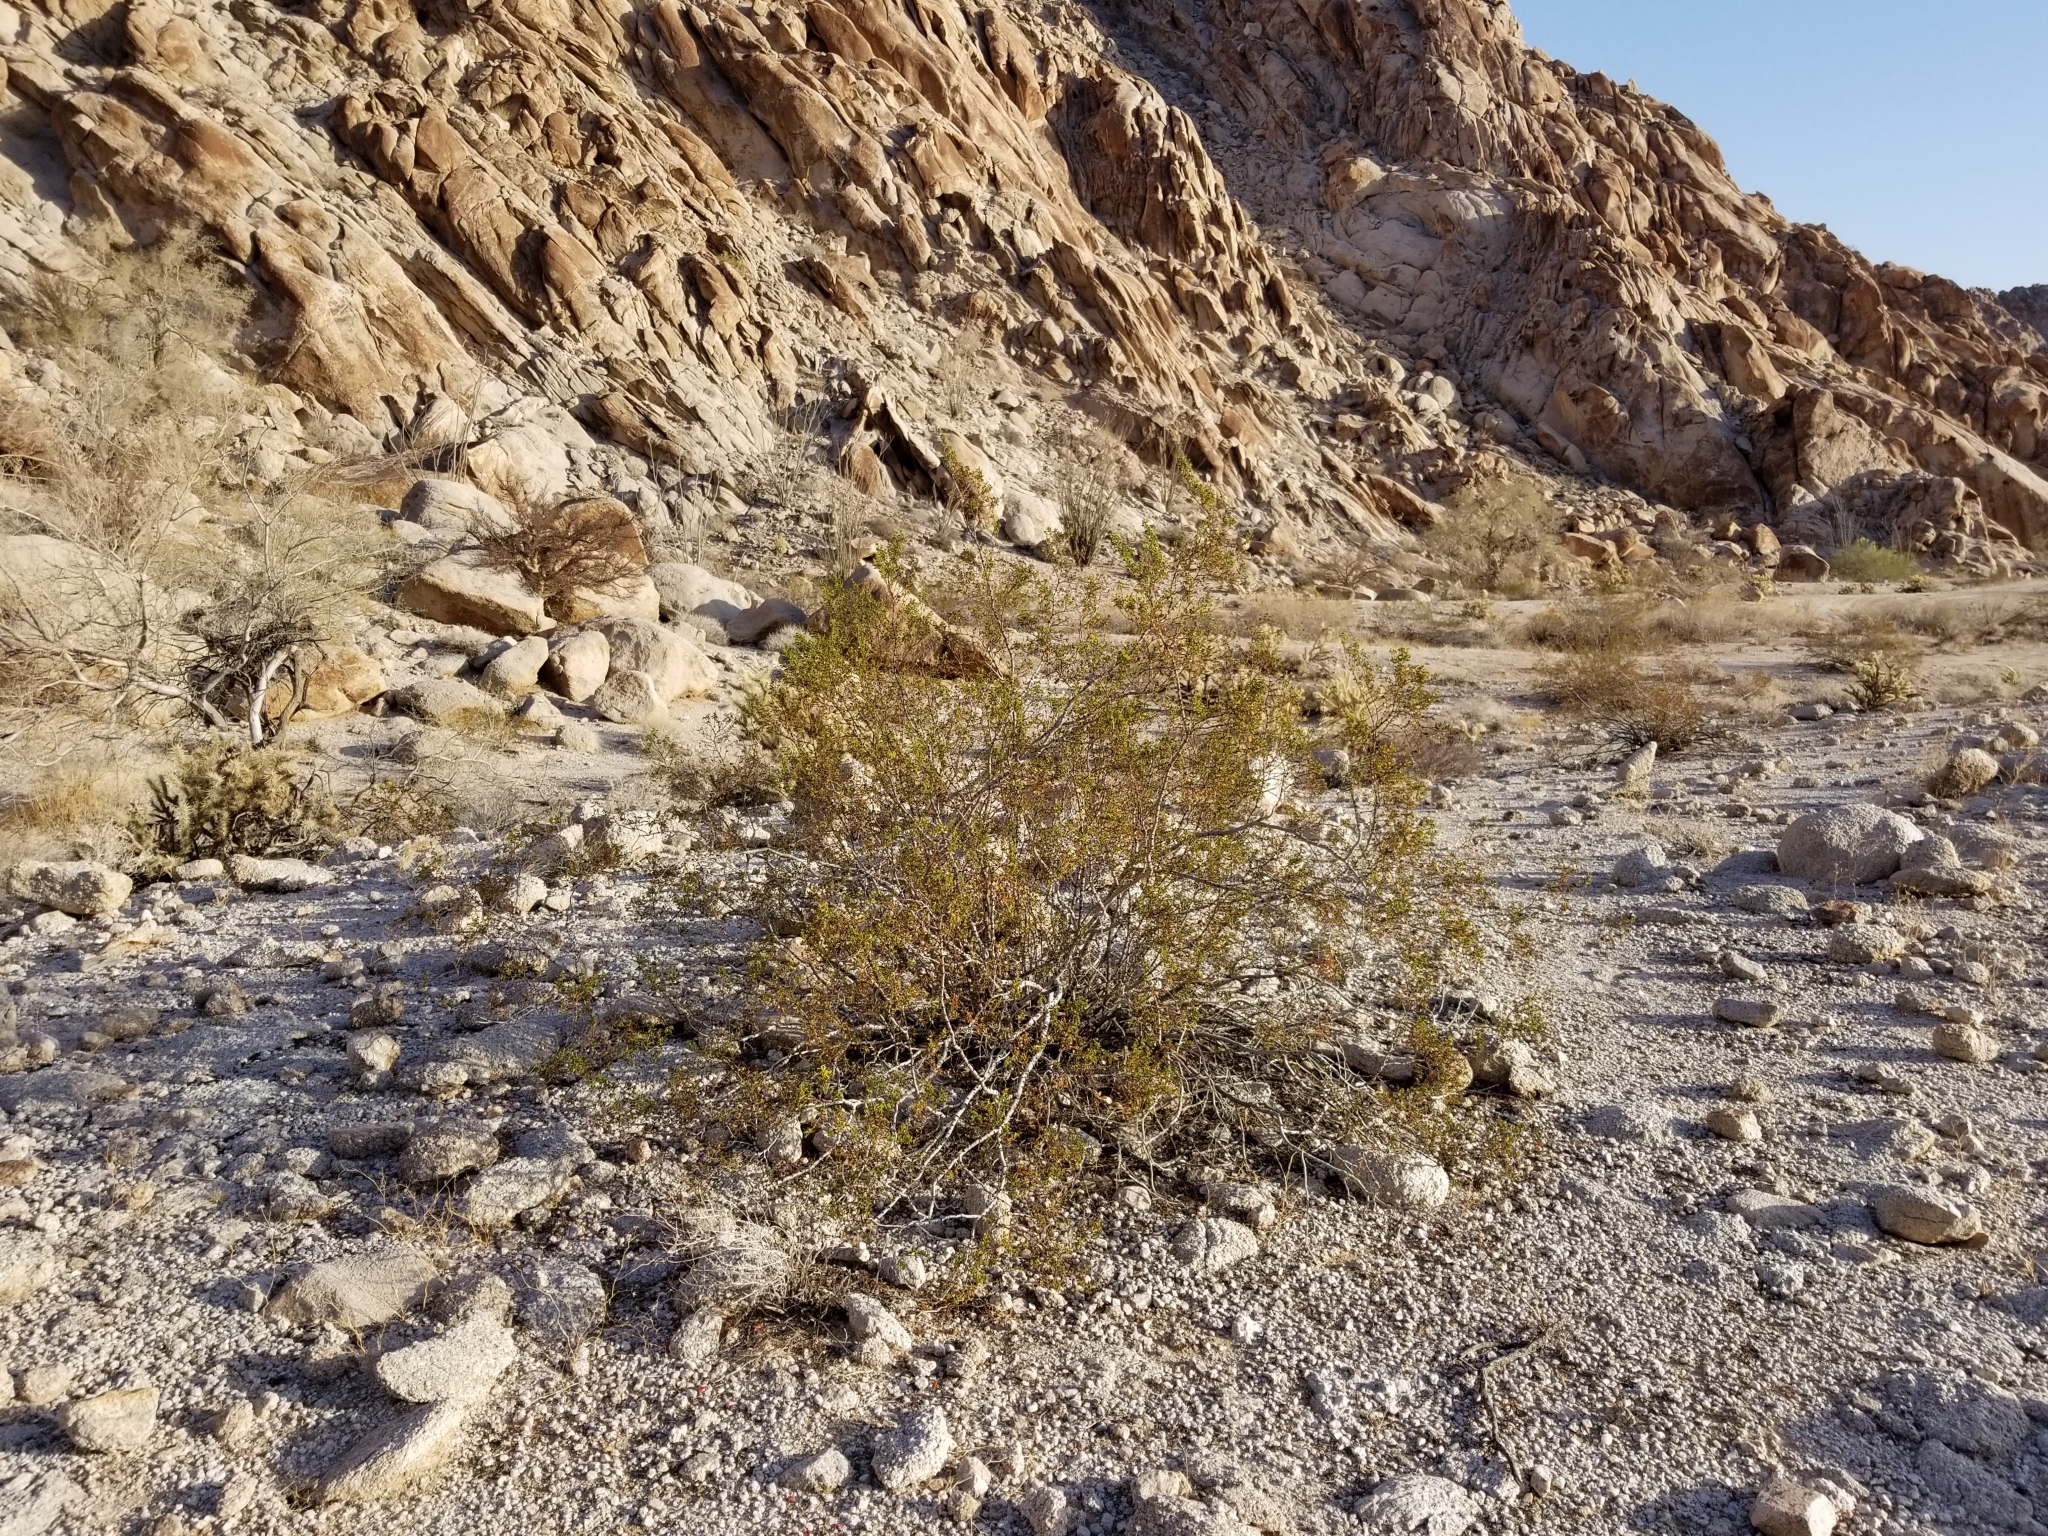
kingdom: Plantae
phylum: Tracheophyta
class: Magnoliopsida
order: Zygophyllales
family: Zygophyllaceae
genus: Larrea
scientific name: Larrea tridentata
